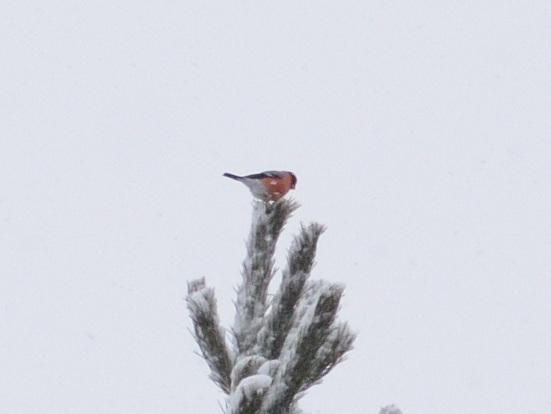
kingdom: Animalia
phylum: Chordata
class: Aves
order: Passeriformes
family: Fringillidae
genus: Pyrrhula
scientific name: Pyrrhula pyrrhula
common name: Eurasian bullfinch
